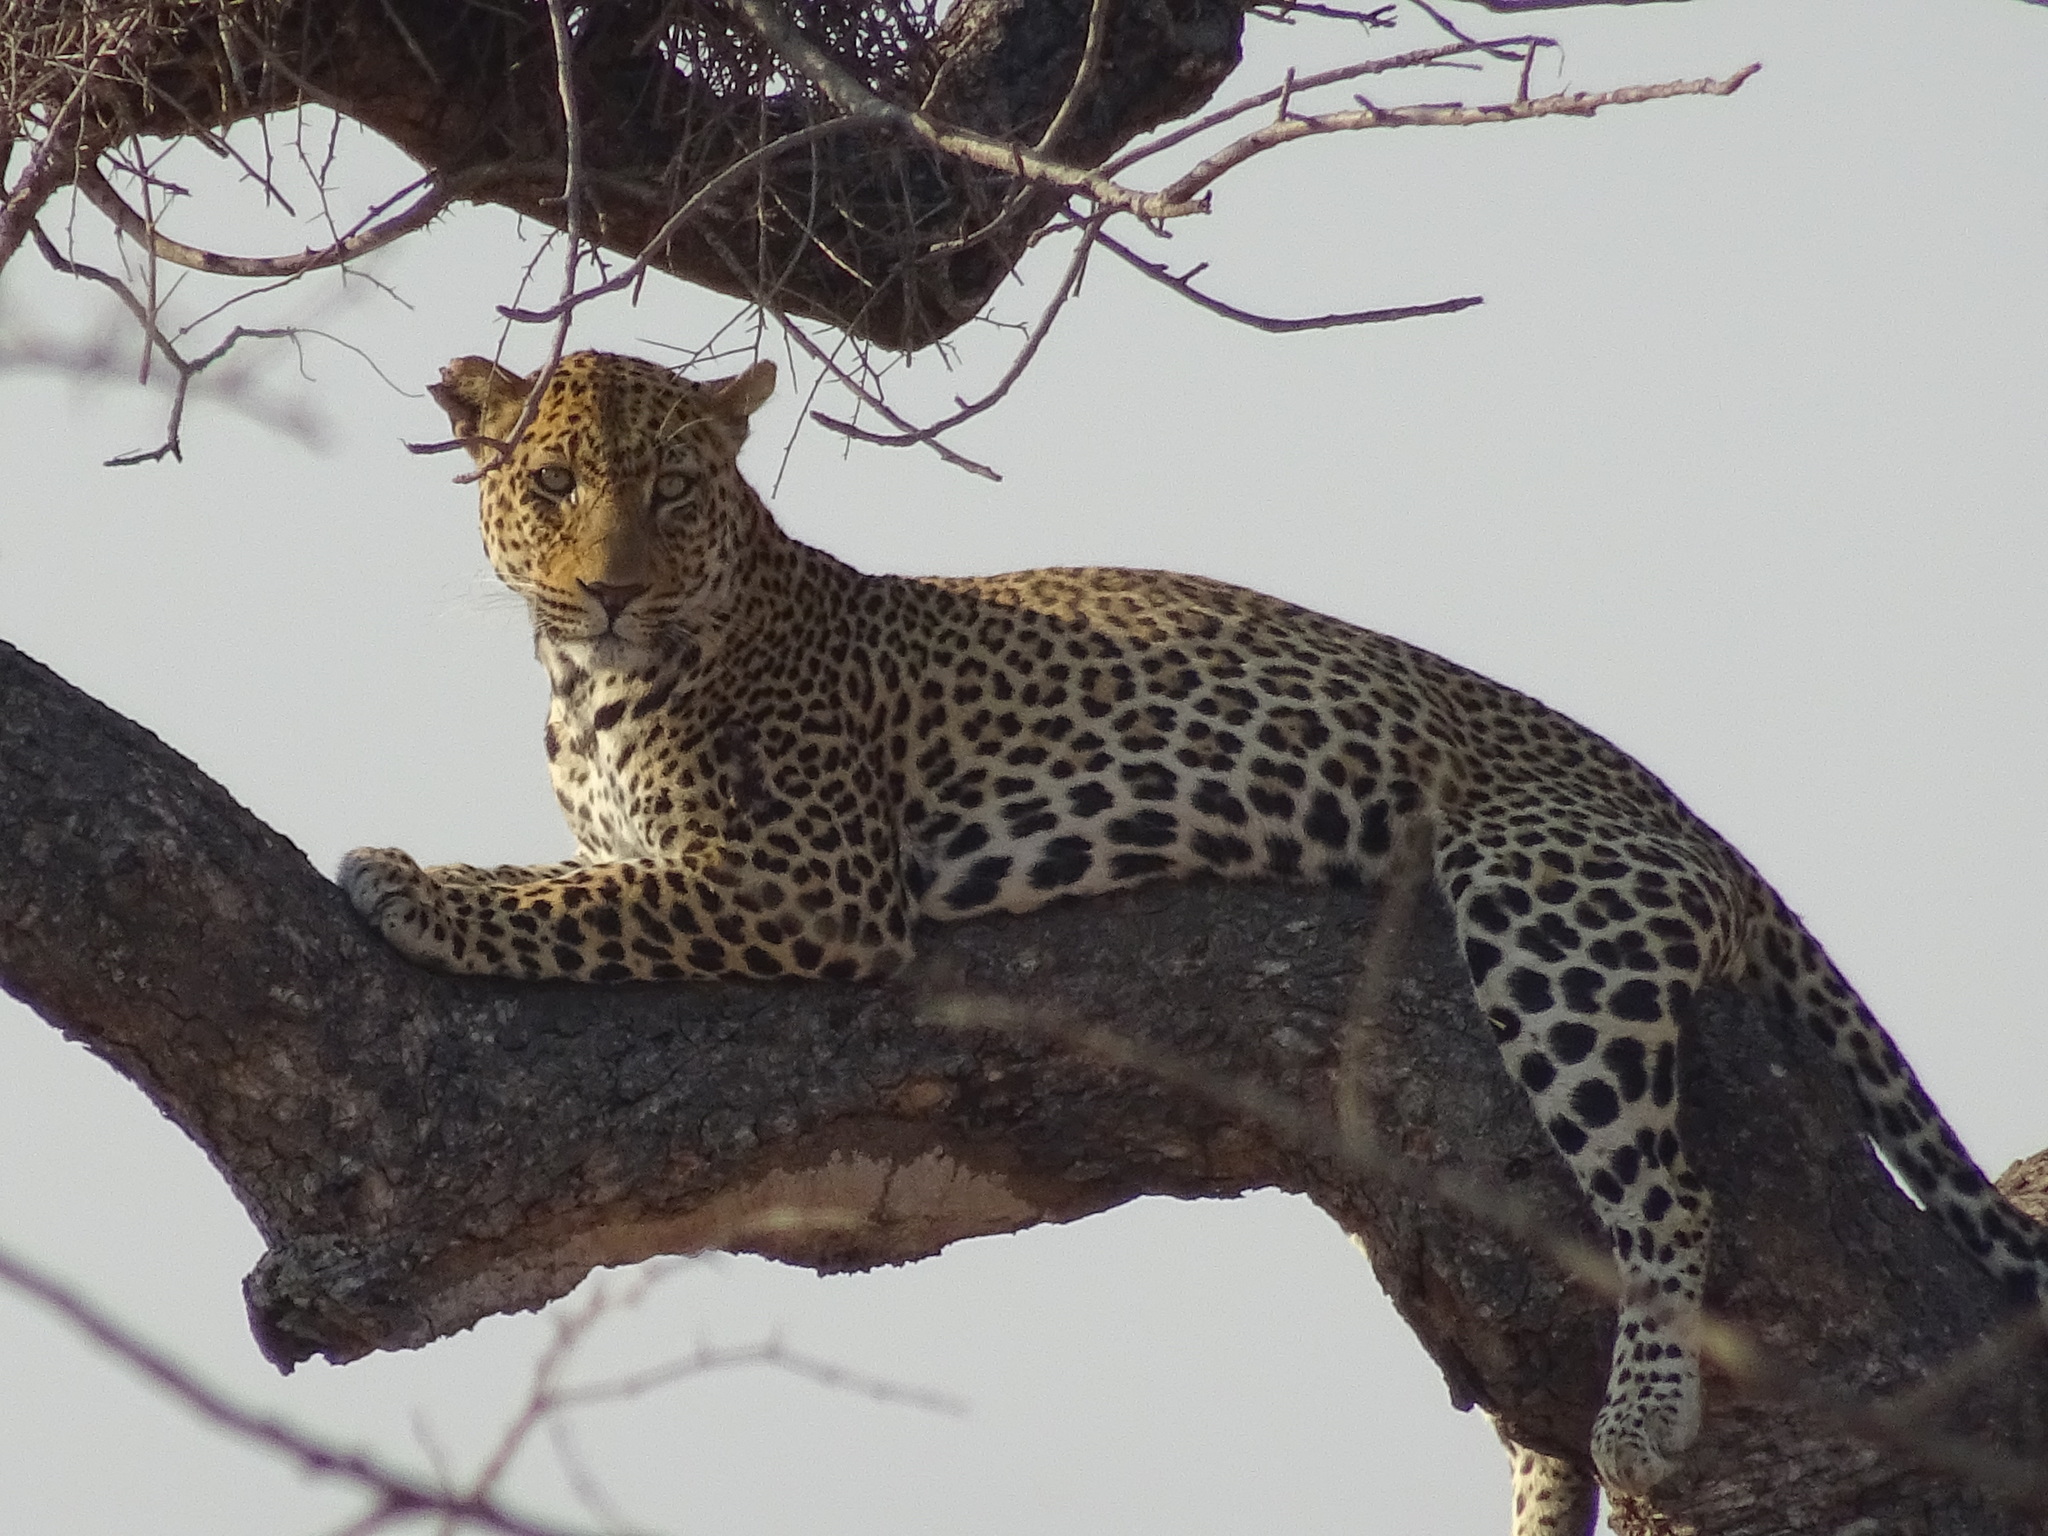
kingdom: Animalia
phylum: Chordata
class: Mammalia
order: Carnivora
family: Felidae
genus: Panthera
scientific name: Panthera pardus
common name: Leopard
